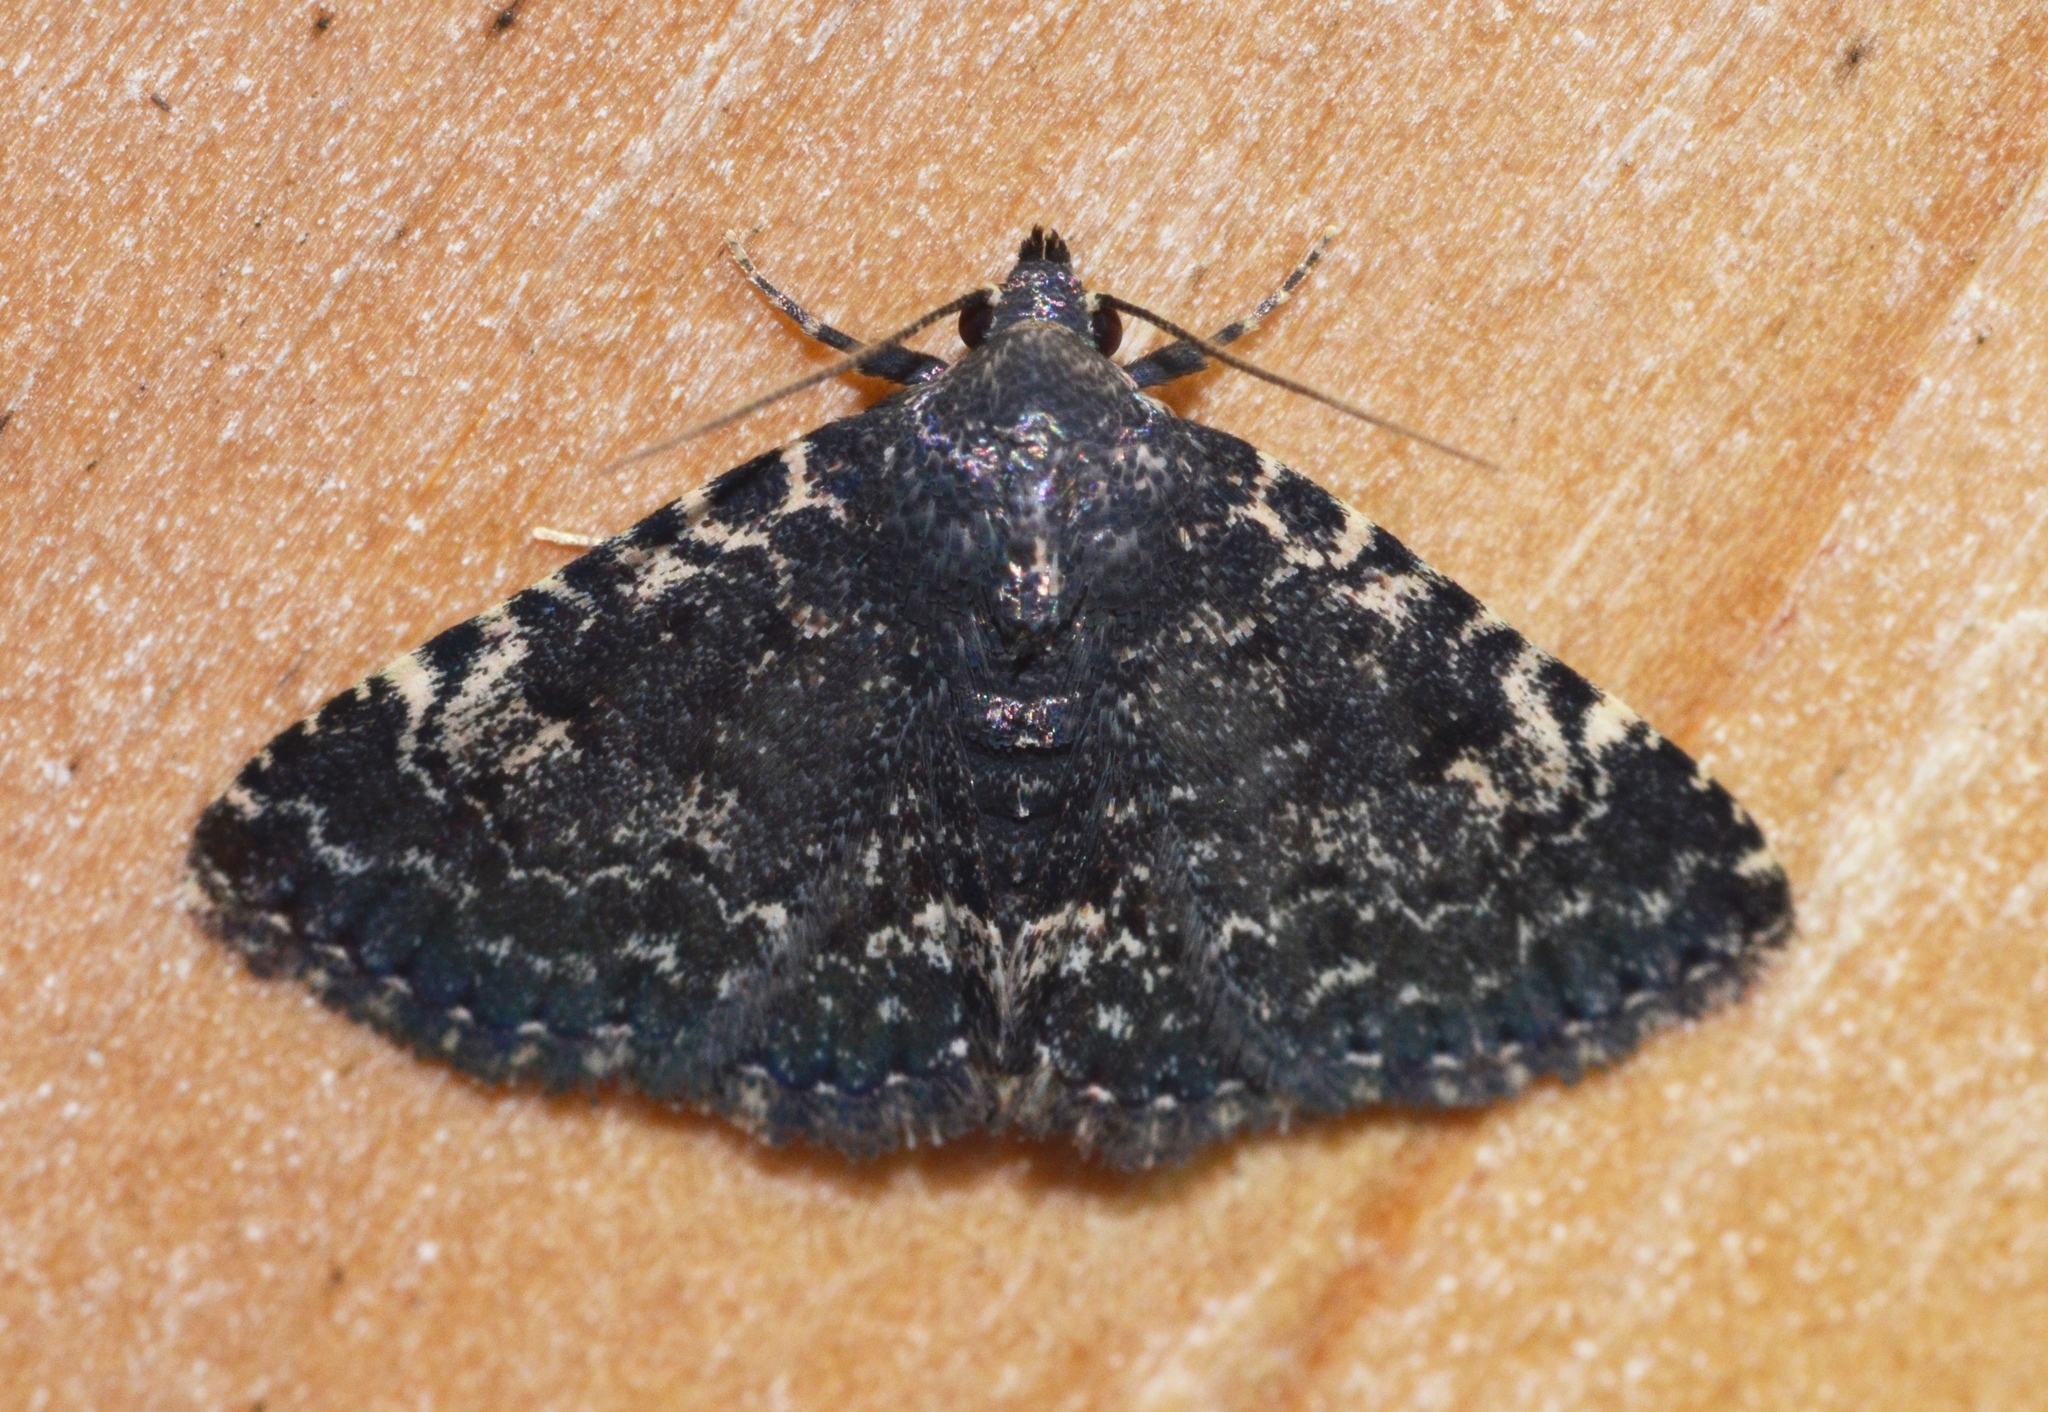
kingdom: Animalia
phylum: Arthropoda
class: Insecta
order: Lepidoptera
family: Erebidae
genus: Metalectra
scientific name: Metalectra tantillus
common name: Black fungus moth
